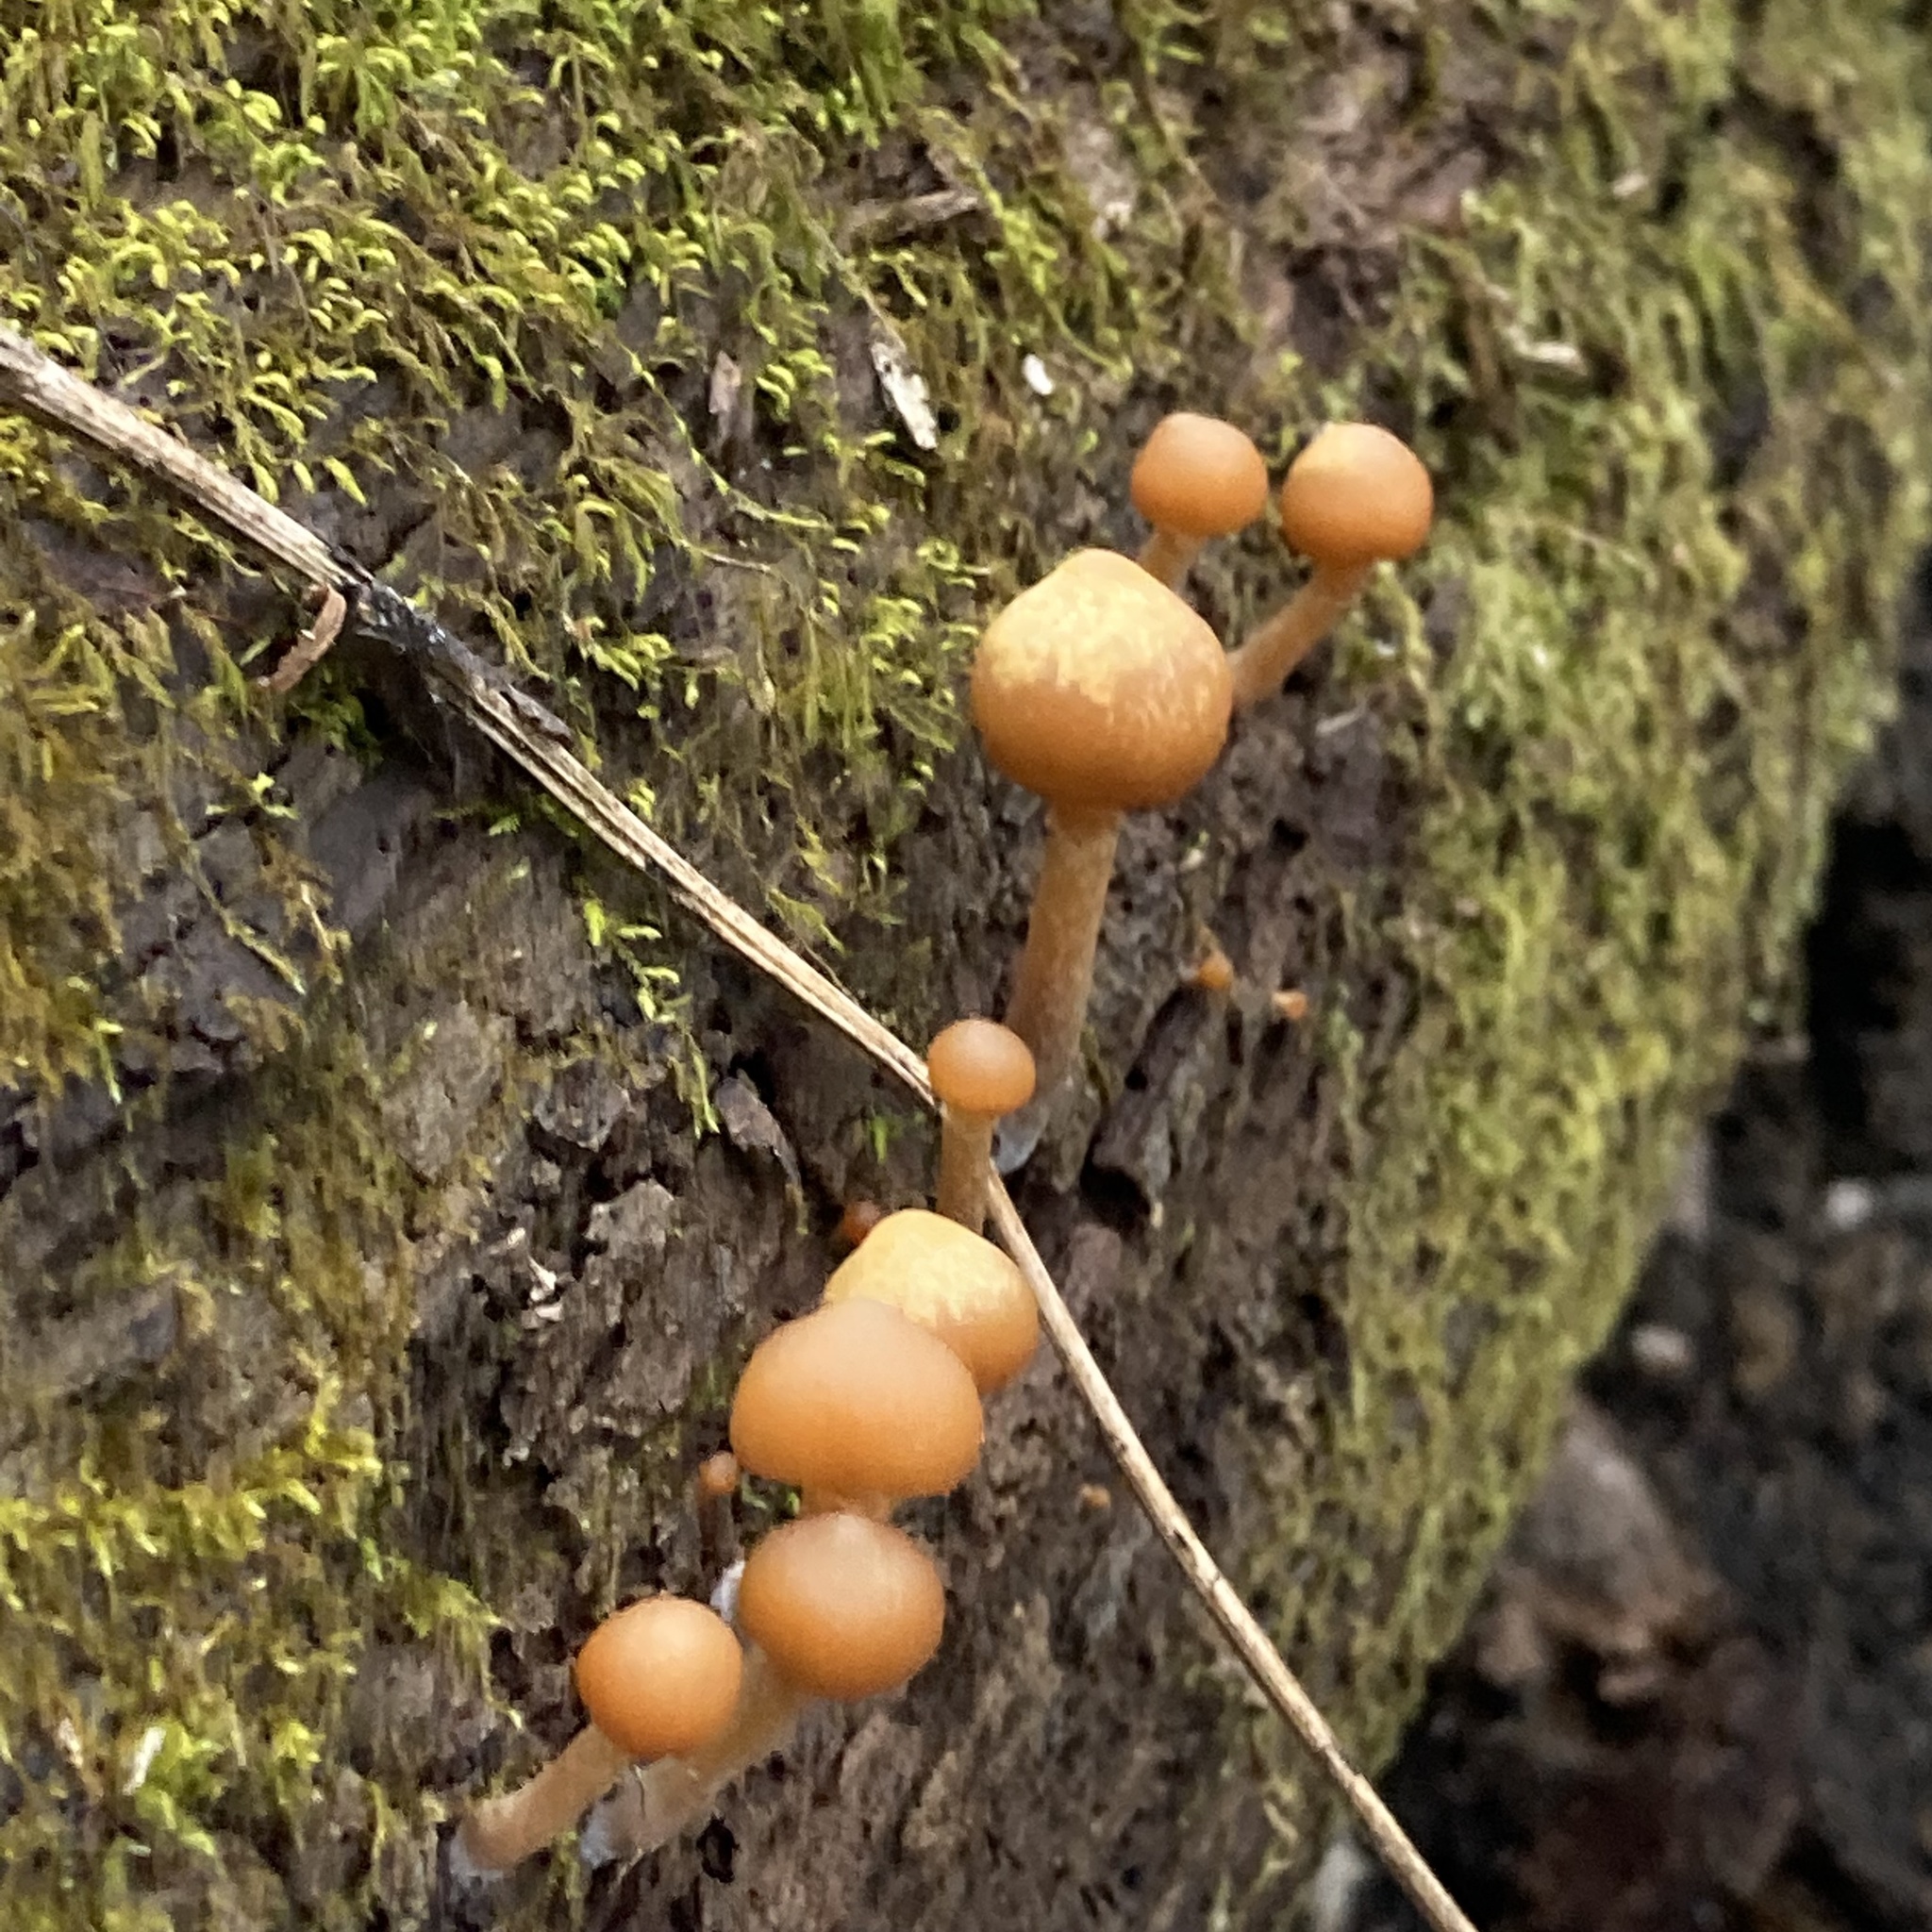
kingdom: Fungi
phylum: Basidiomycota
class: Agaricomycetes
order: Agaricales
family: Hymenogastraceae
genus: Galerina
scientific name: Galerina marginata
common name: Funeral bell
